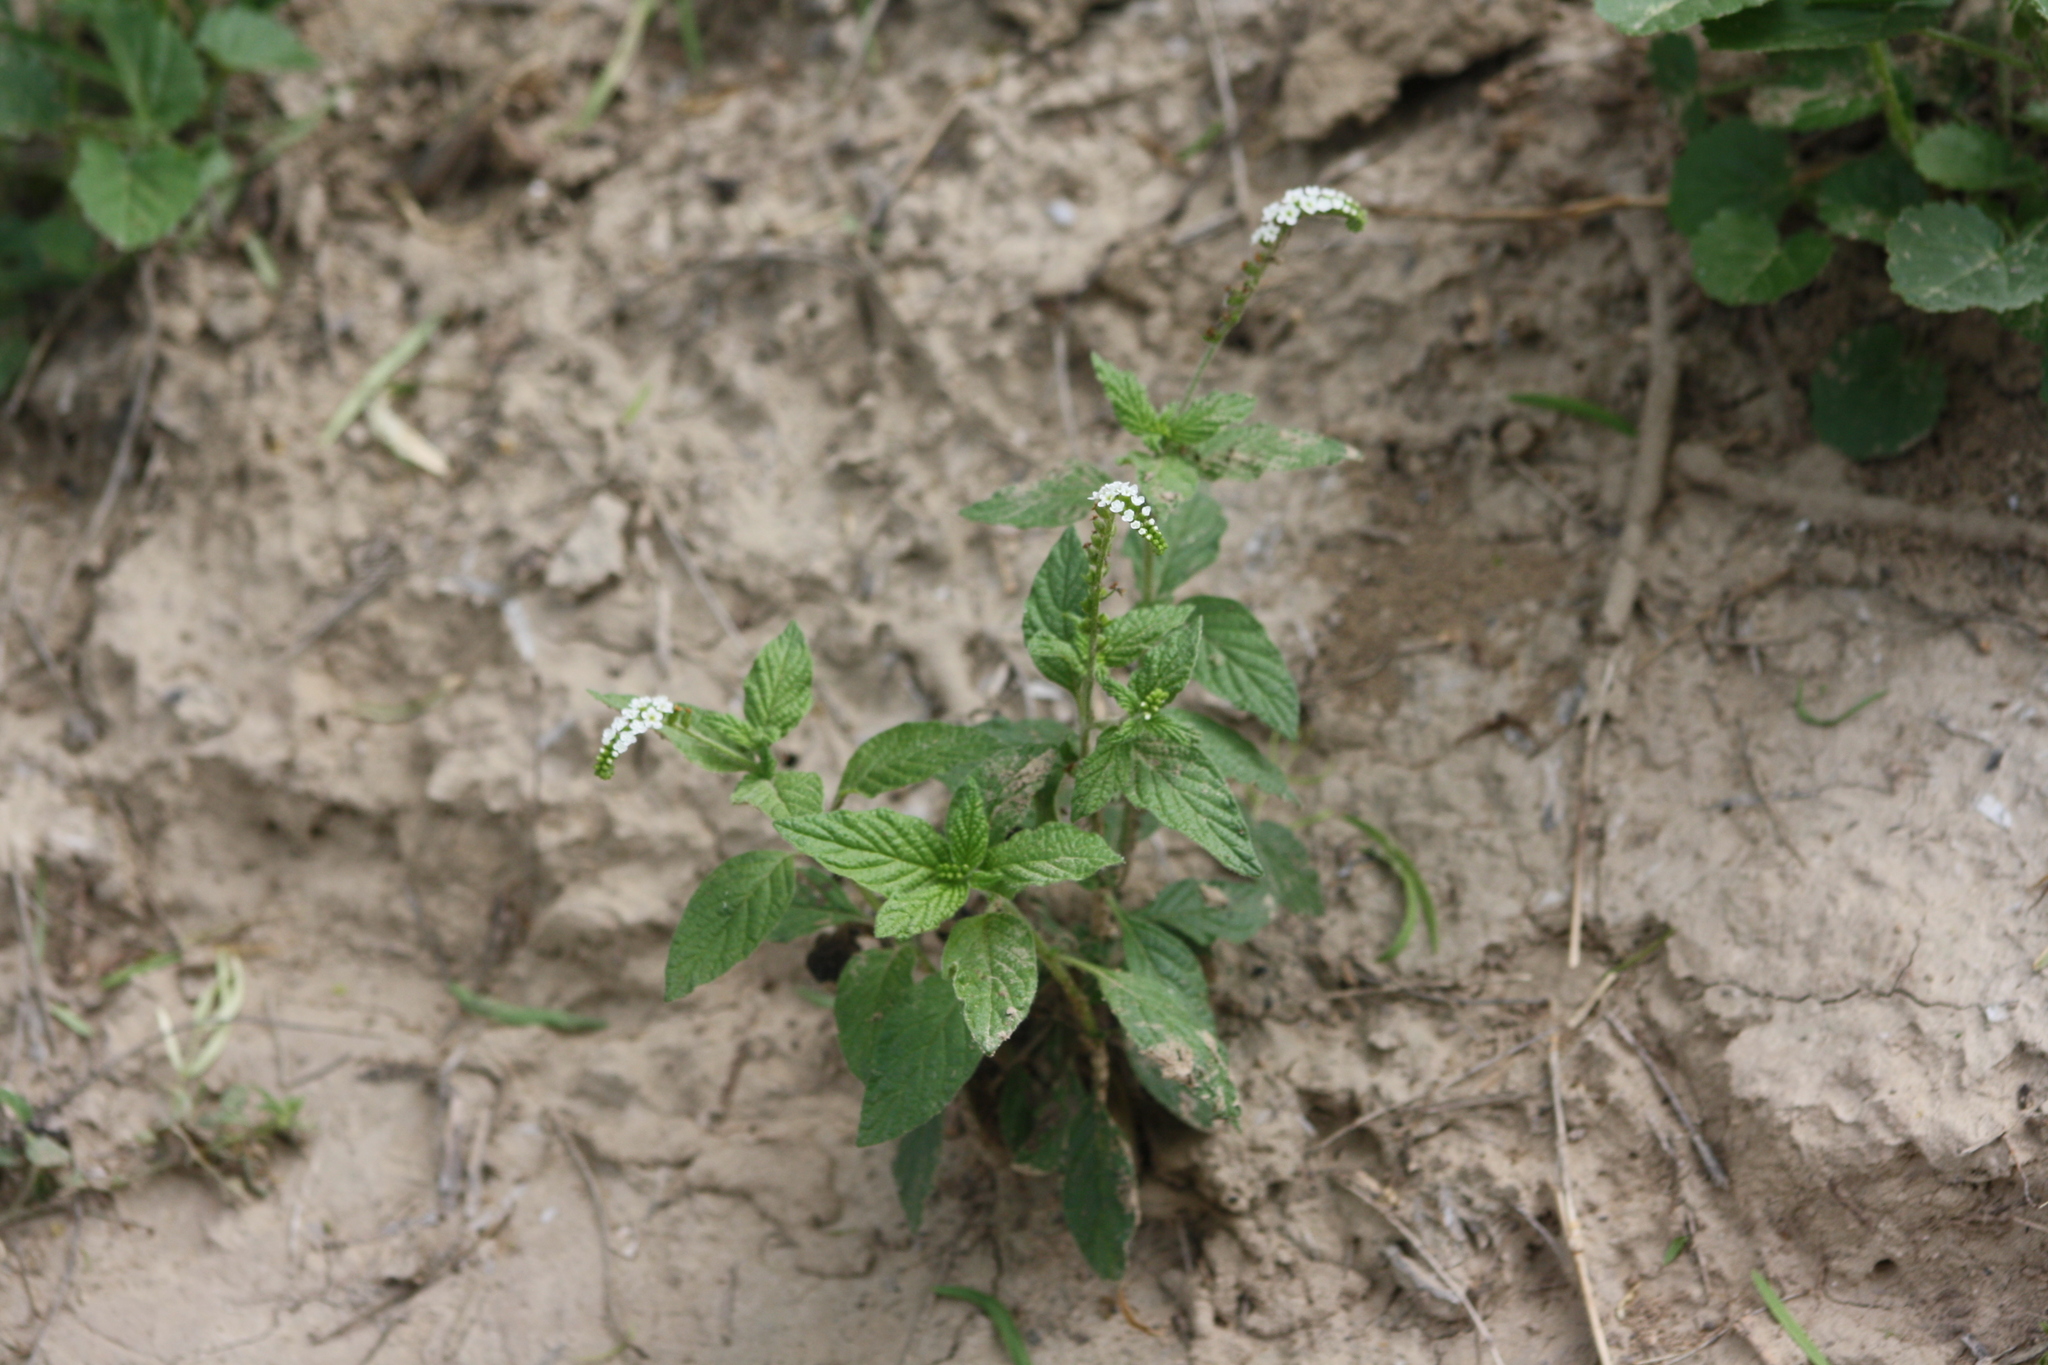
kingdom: Plantae
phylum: Tracheophyta
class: Magnoliopsida
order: Boraginales
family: Heliotropiaceae
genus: Heliotropium
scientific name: Heliotropium angiospermum
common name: Eye bright
